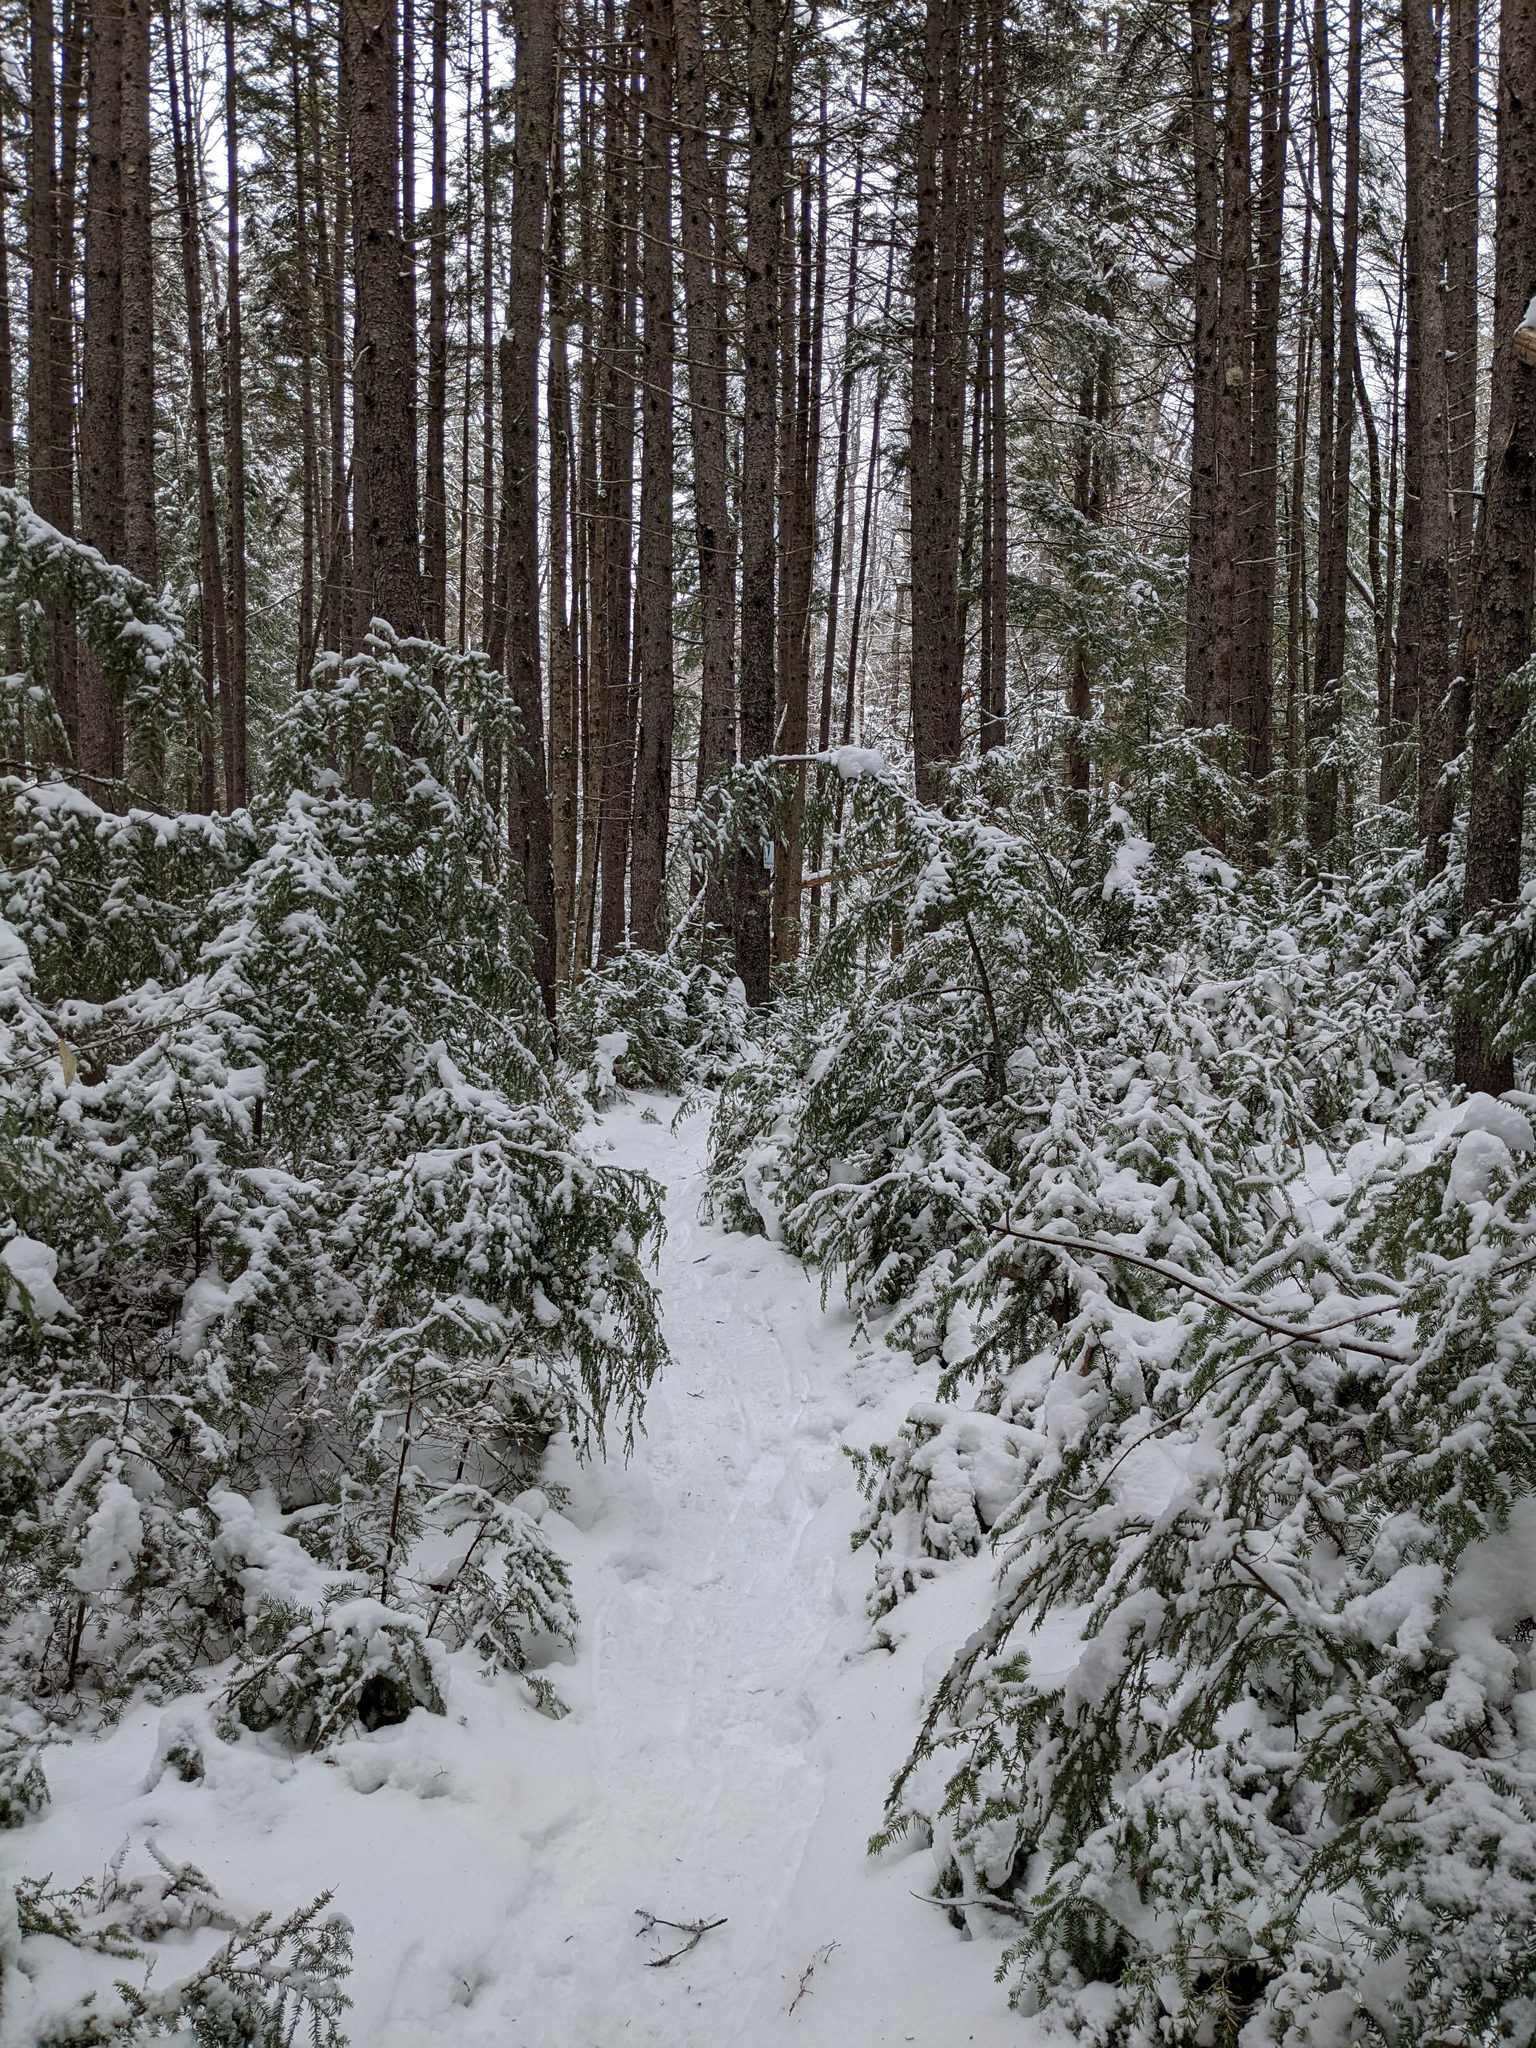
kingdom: Plantae
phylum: Tracheophyta
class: Pinopsida
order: Pinales
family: Pinaceae
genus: Tsuga
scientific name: Tsuga canadensis
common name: Eastern hemlock
